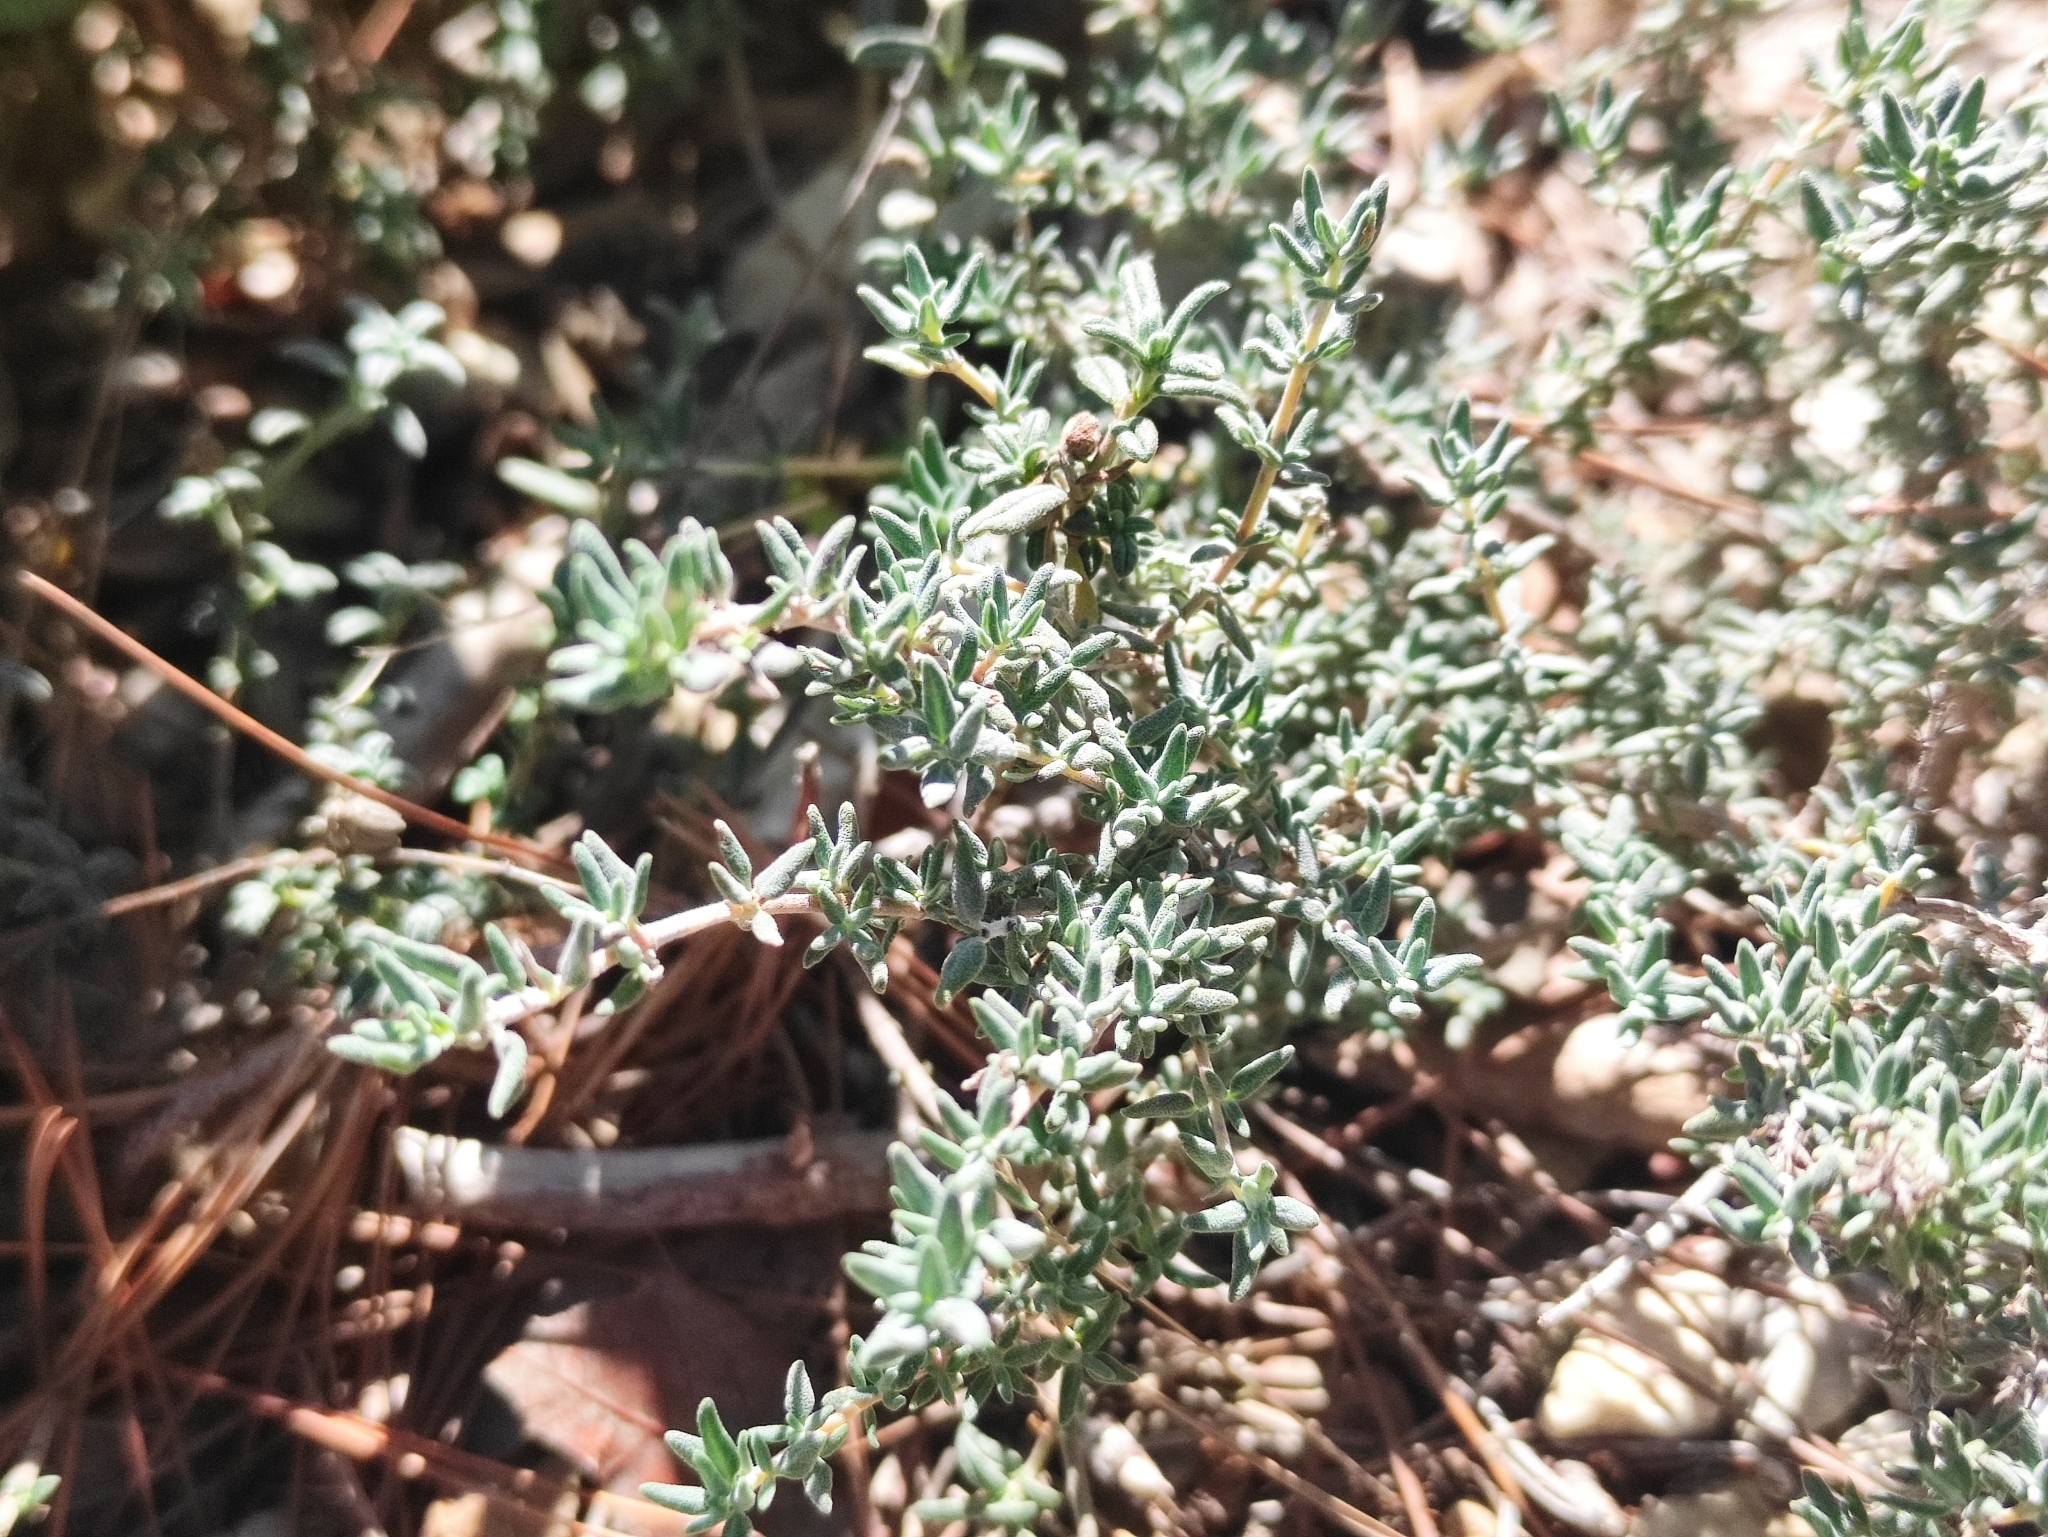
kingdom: Plantae
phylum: Tracheophyta
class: Magnoliopsida
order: Lamiales
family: Lamiaceae
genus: Thymus
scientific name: Thymus vulgaris
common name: Garden thyme
